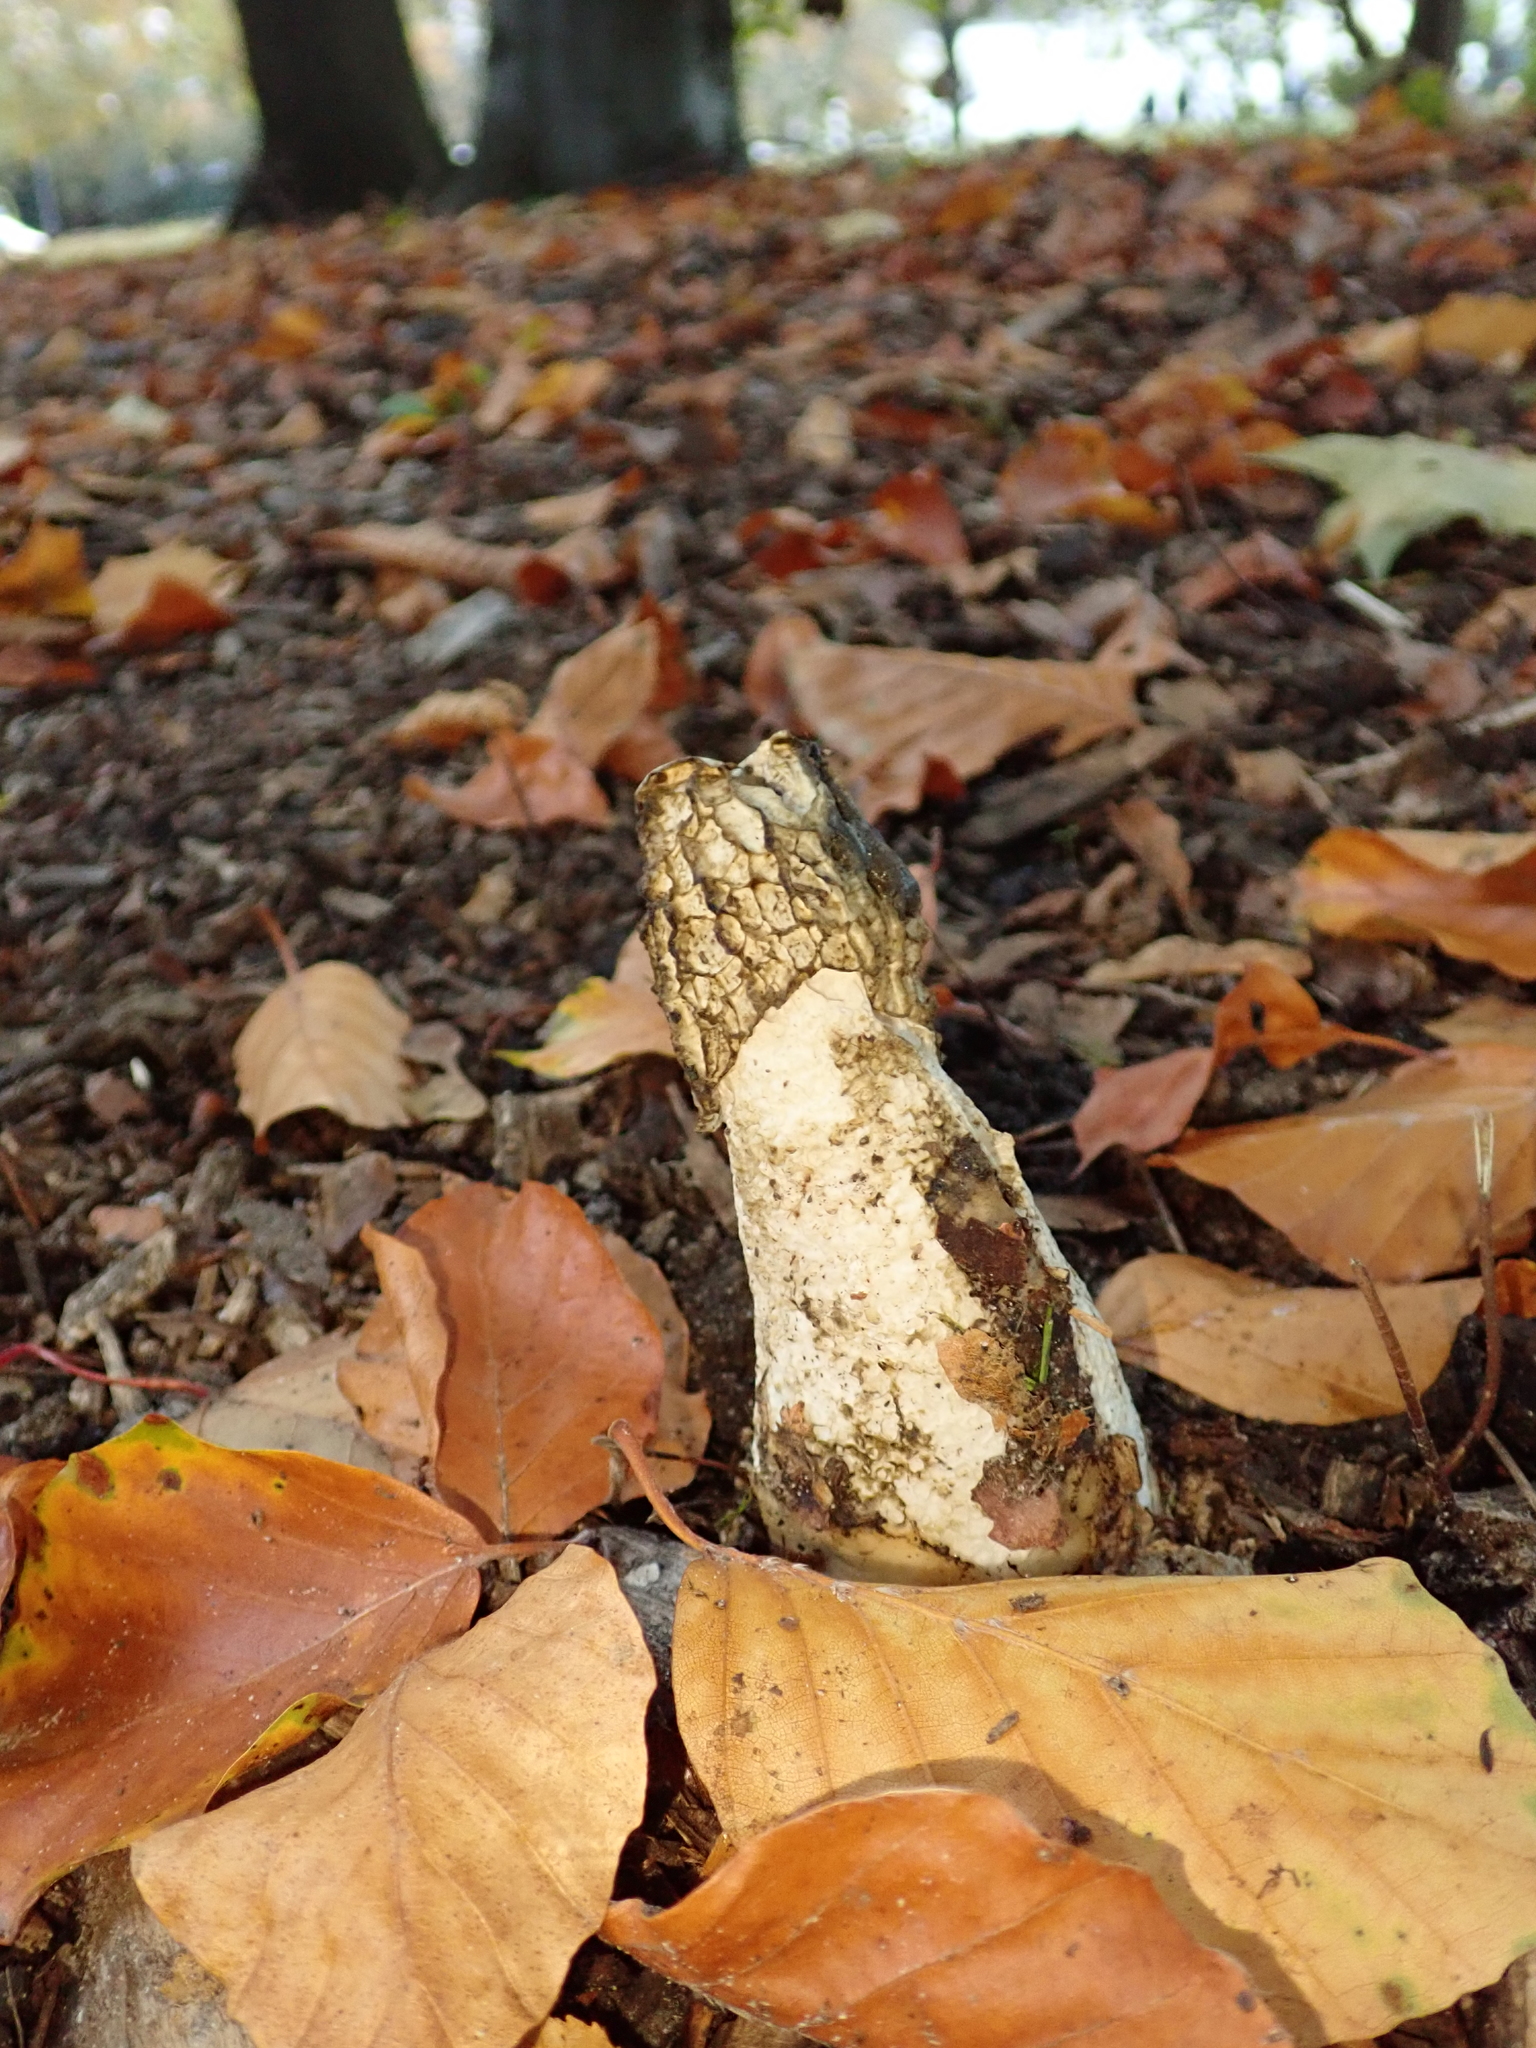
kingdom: Fungi
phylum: Basidiomycota
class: Agaricomycetes
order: Phallales
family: Phallaceae
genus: Phallus
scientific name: Phallus impudicus
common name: Common stinkhorn
